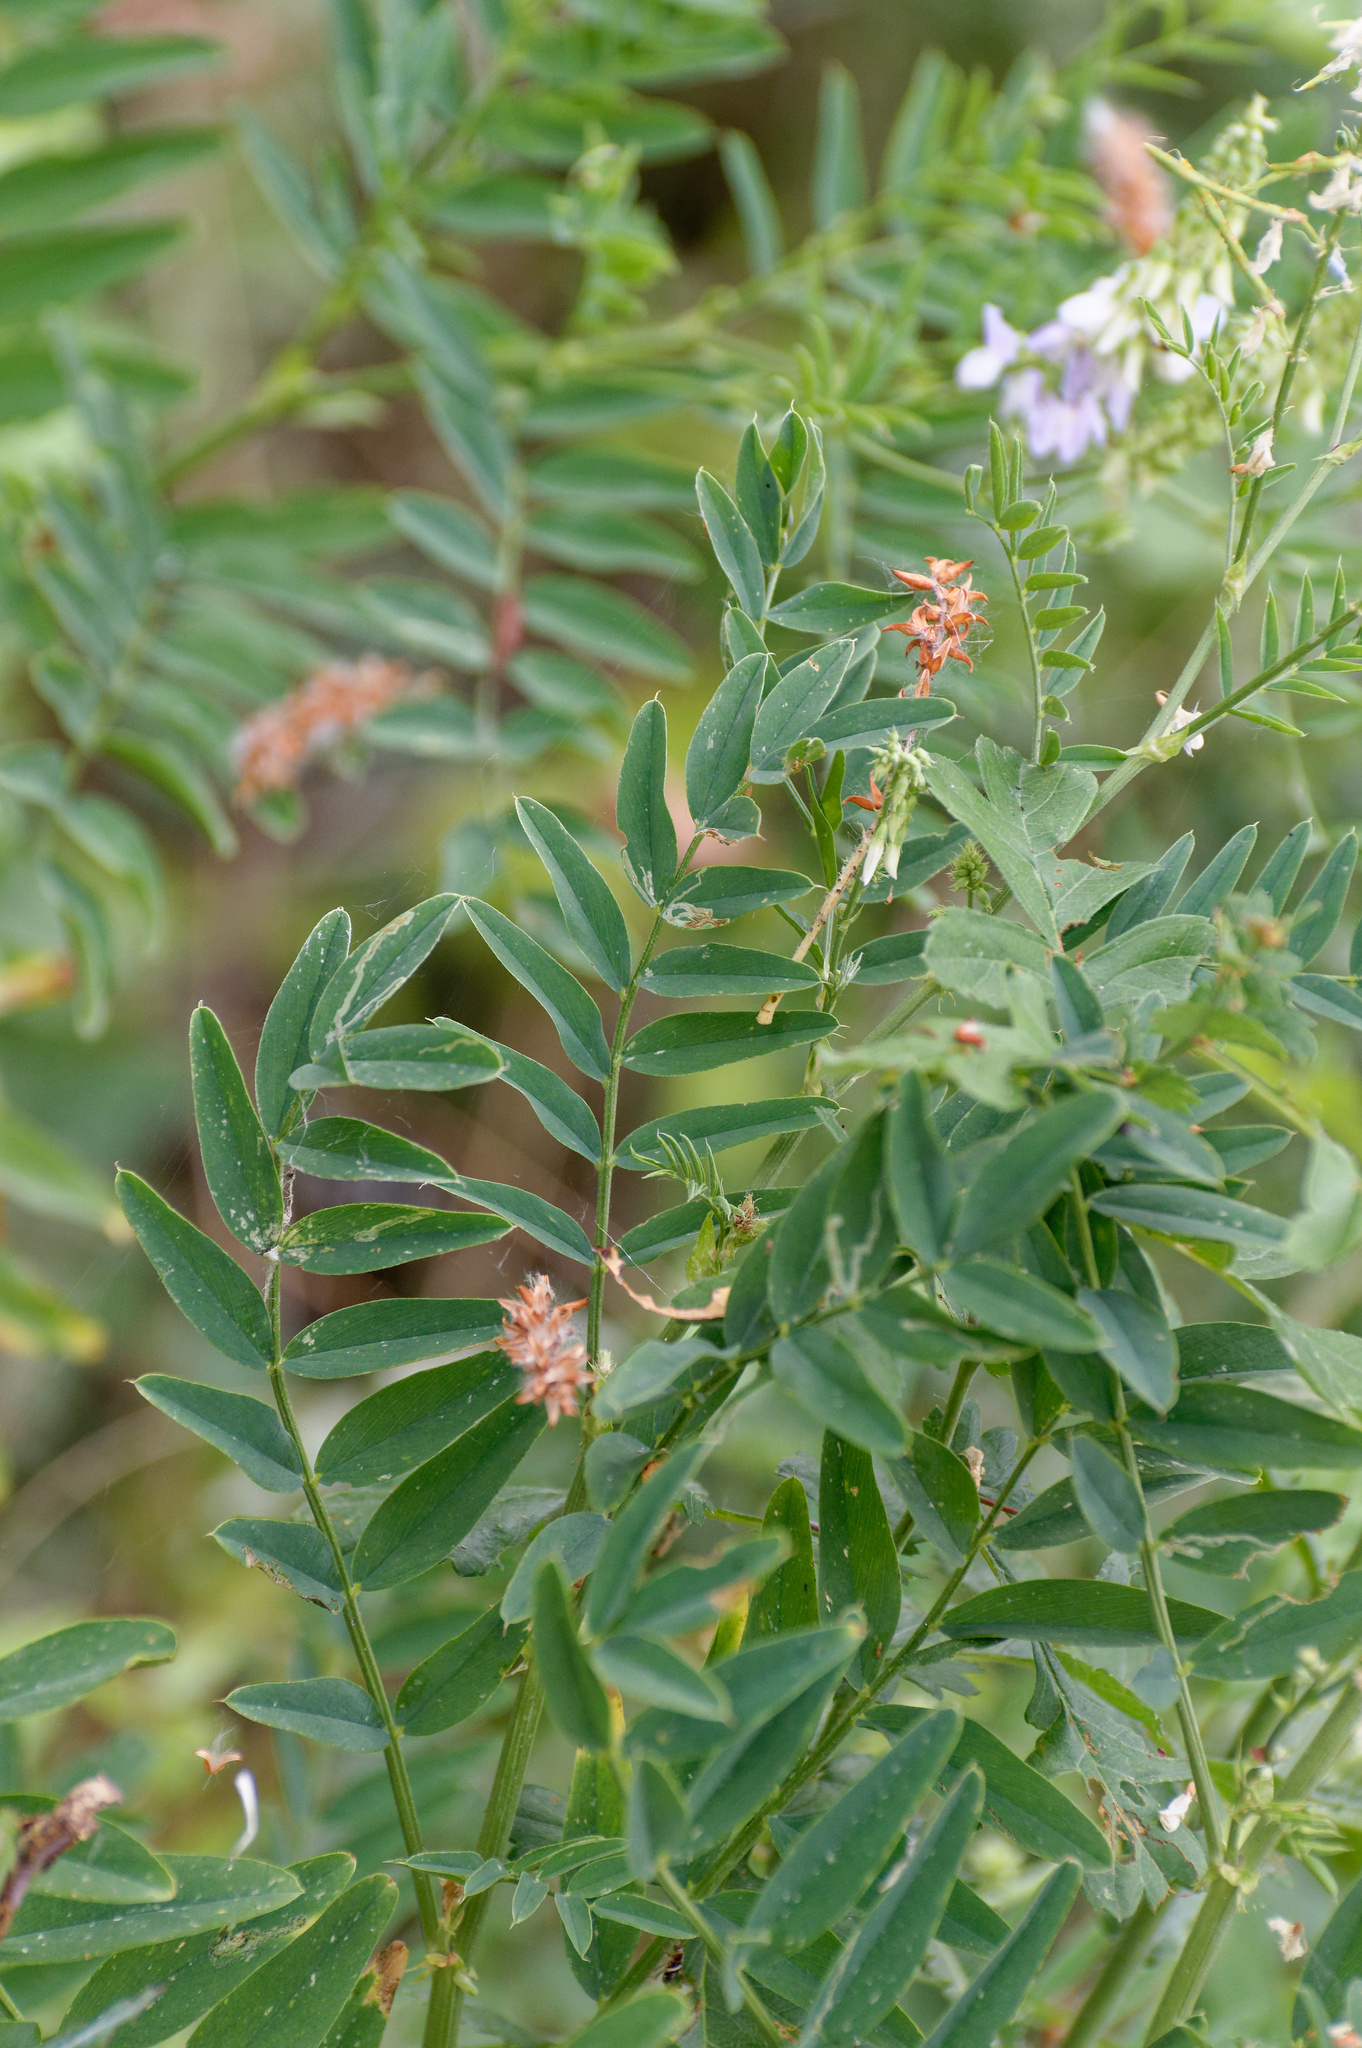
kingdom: Plantae
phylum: Tracheophyta
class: Magnoliopsida
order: Fabales
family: Fabaceae
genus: Galega
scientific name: Galega officinalis
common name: Goat's-rue
